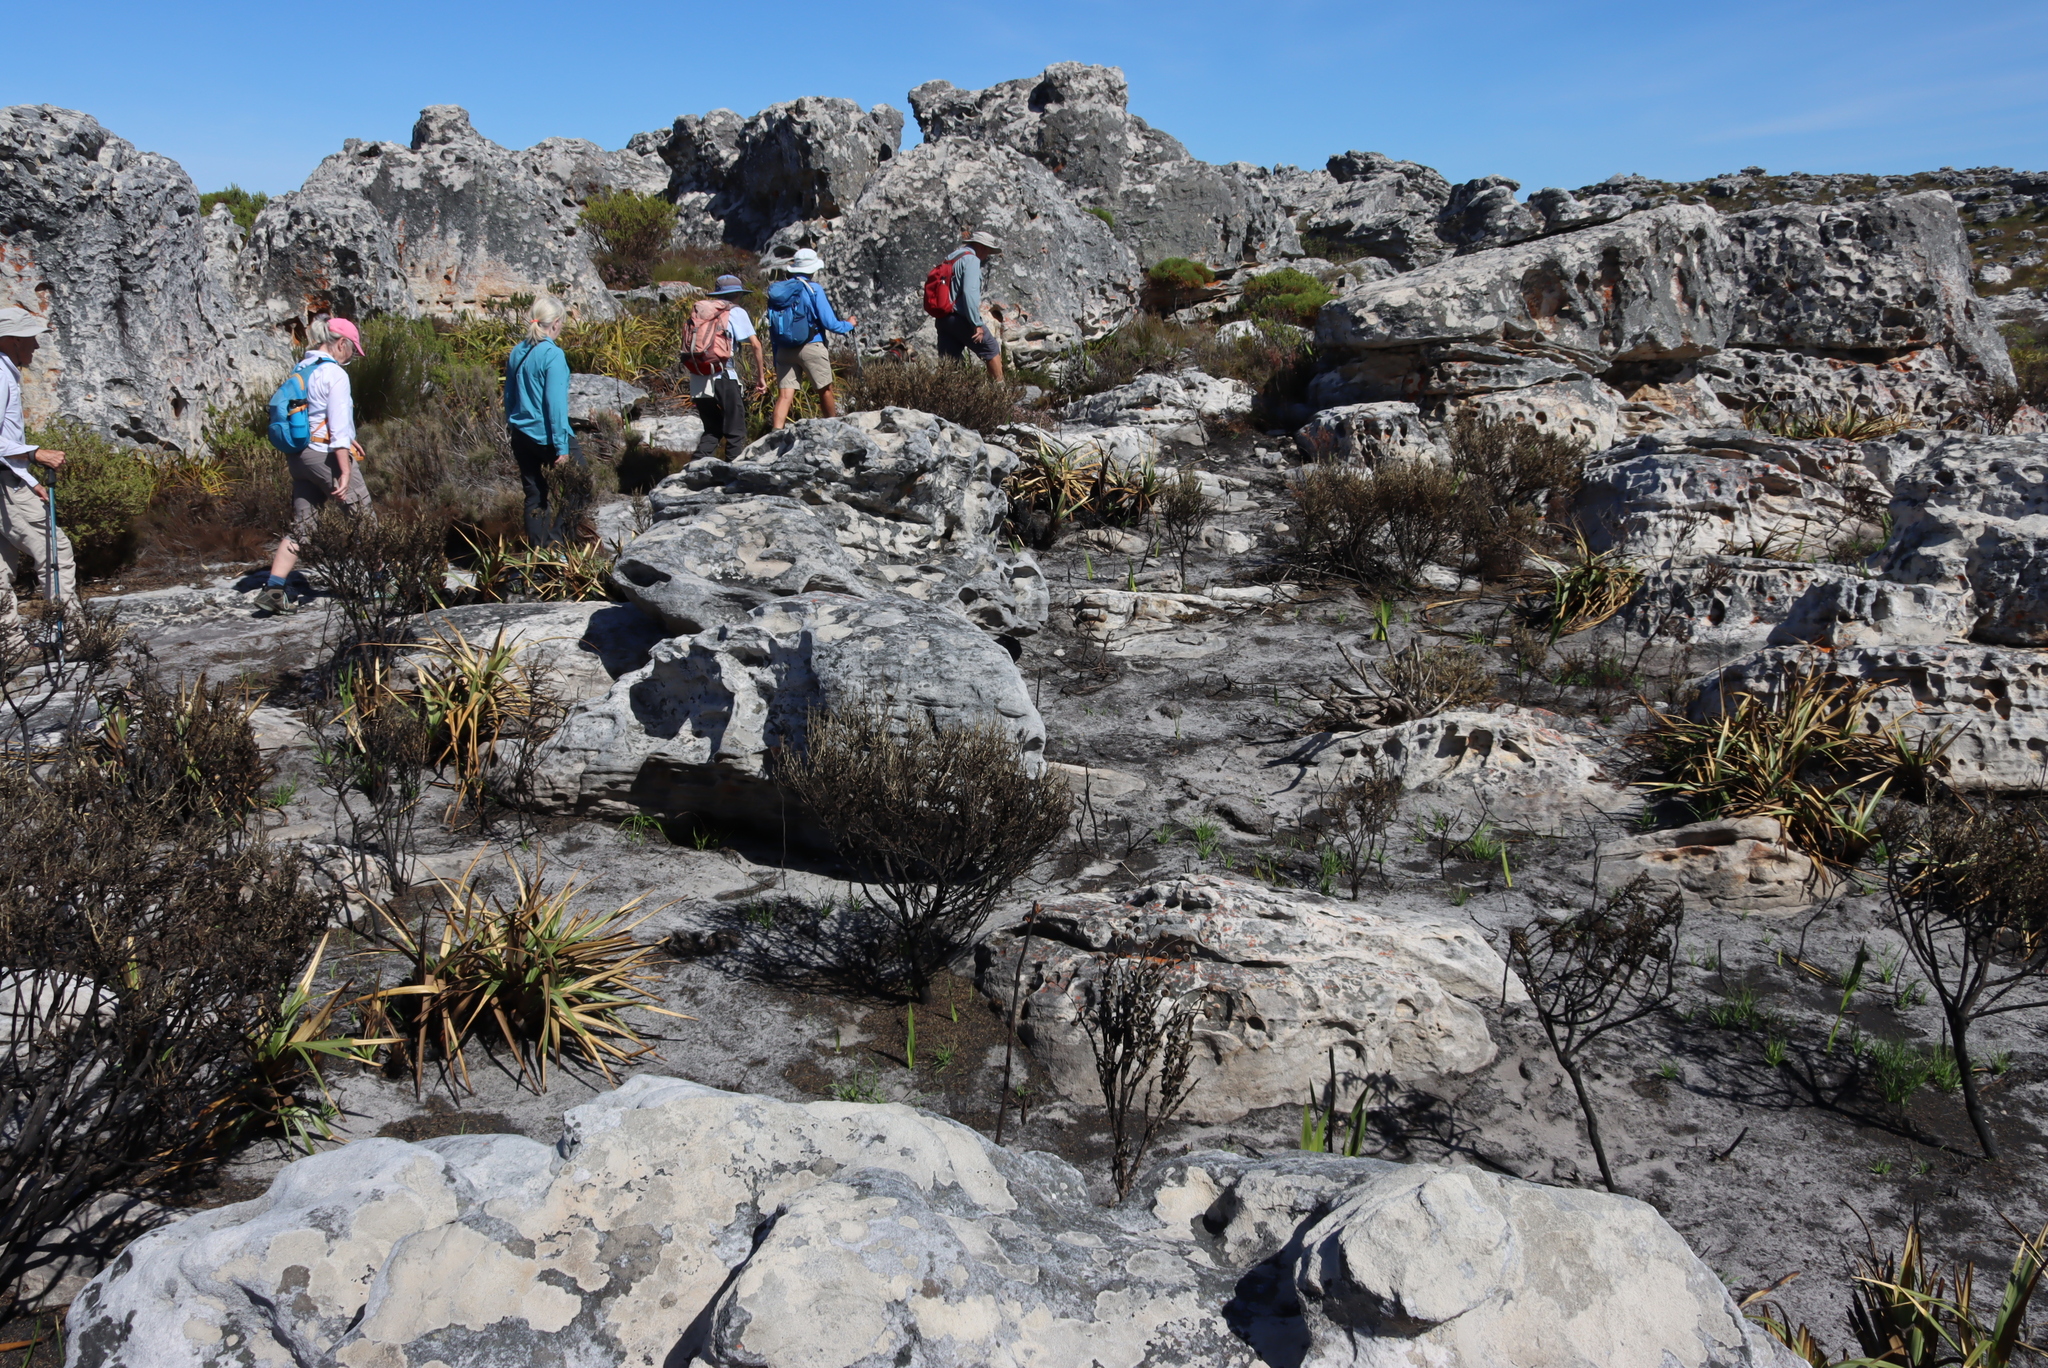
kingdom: Plantae
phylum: Tracheophyta
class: Liliopsida
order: Poales
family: Cyperaceae
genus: Tetraria
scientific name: Tetraria thermalis
